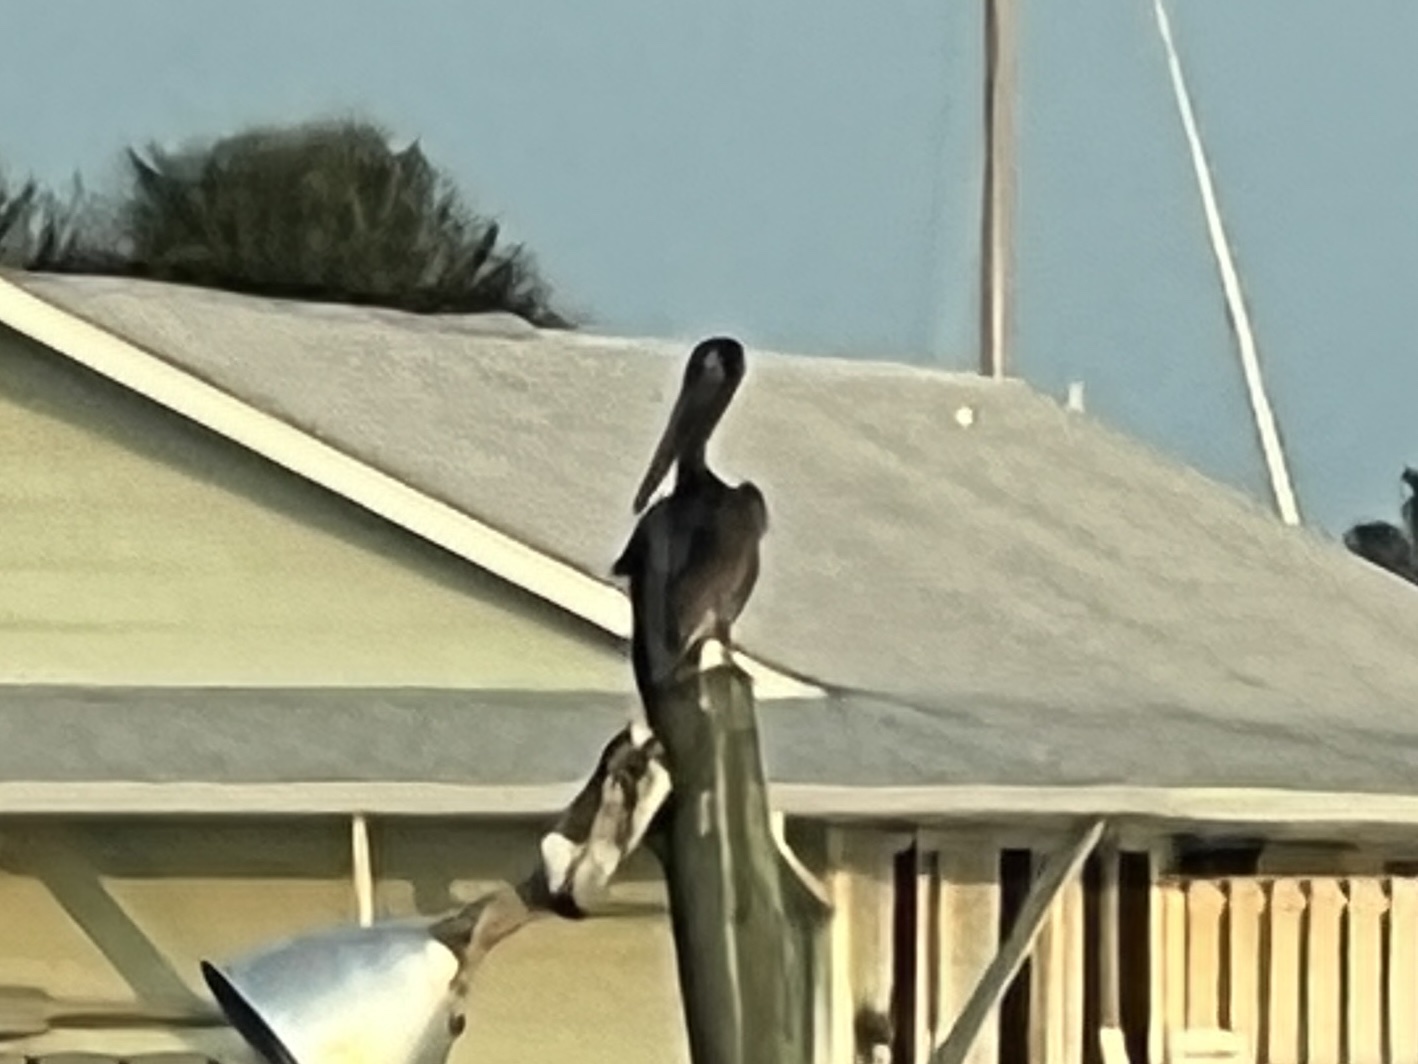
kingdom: Animalia
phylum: Chordata
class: Aves
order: Pelecaniformes
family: Pelecanidae
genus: Pelecanus
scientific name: Pelecanus occidentalis
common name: Brown pelican
